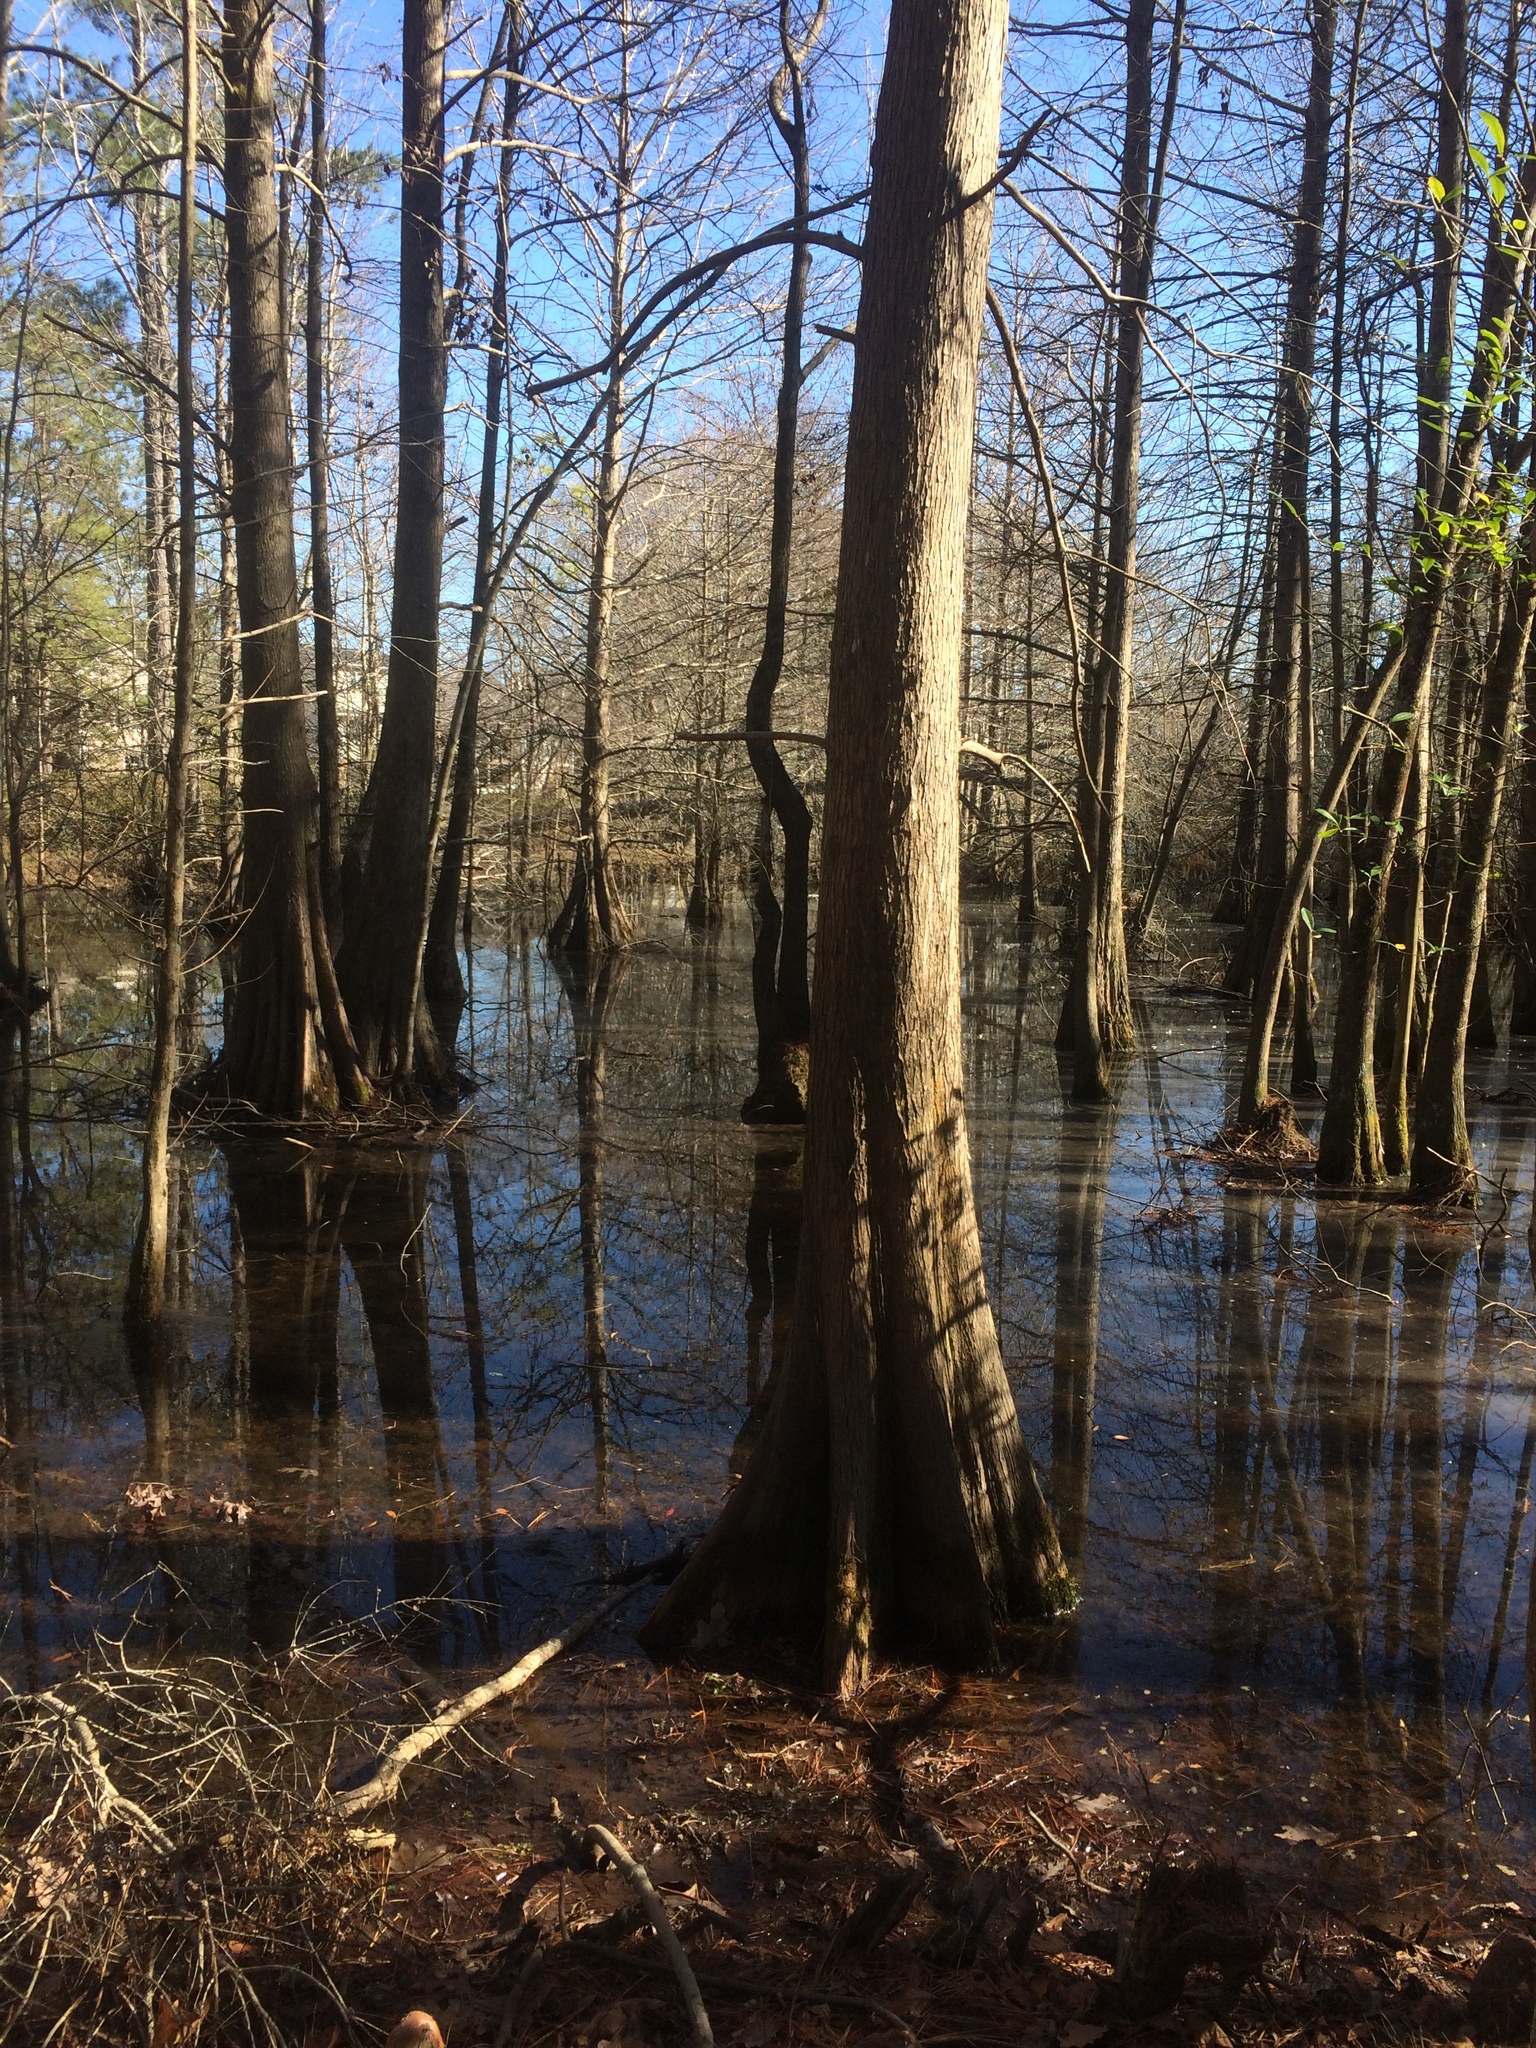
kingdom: Plantae
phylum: Tracheophyta
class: Pinopsida
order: Pinales
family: Cupressaceae
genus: Taxodium
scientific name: Taxodium distichum
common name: Bald cypress
